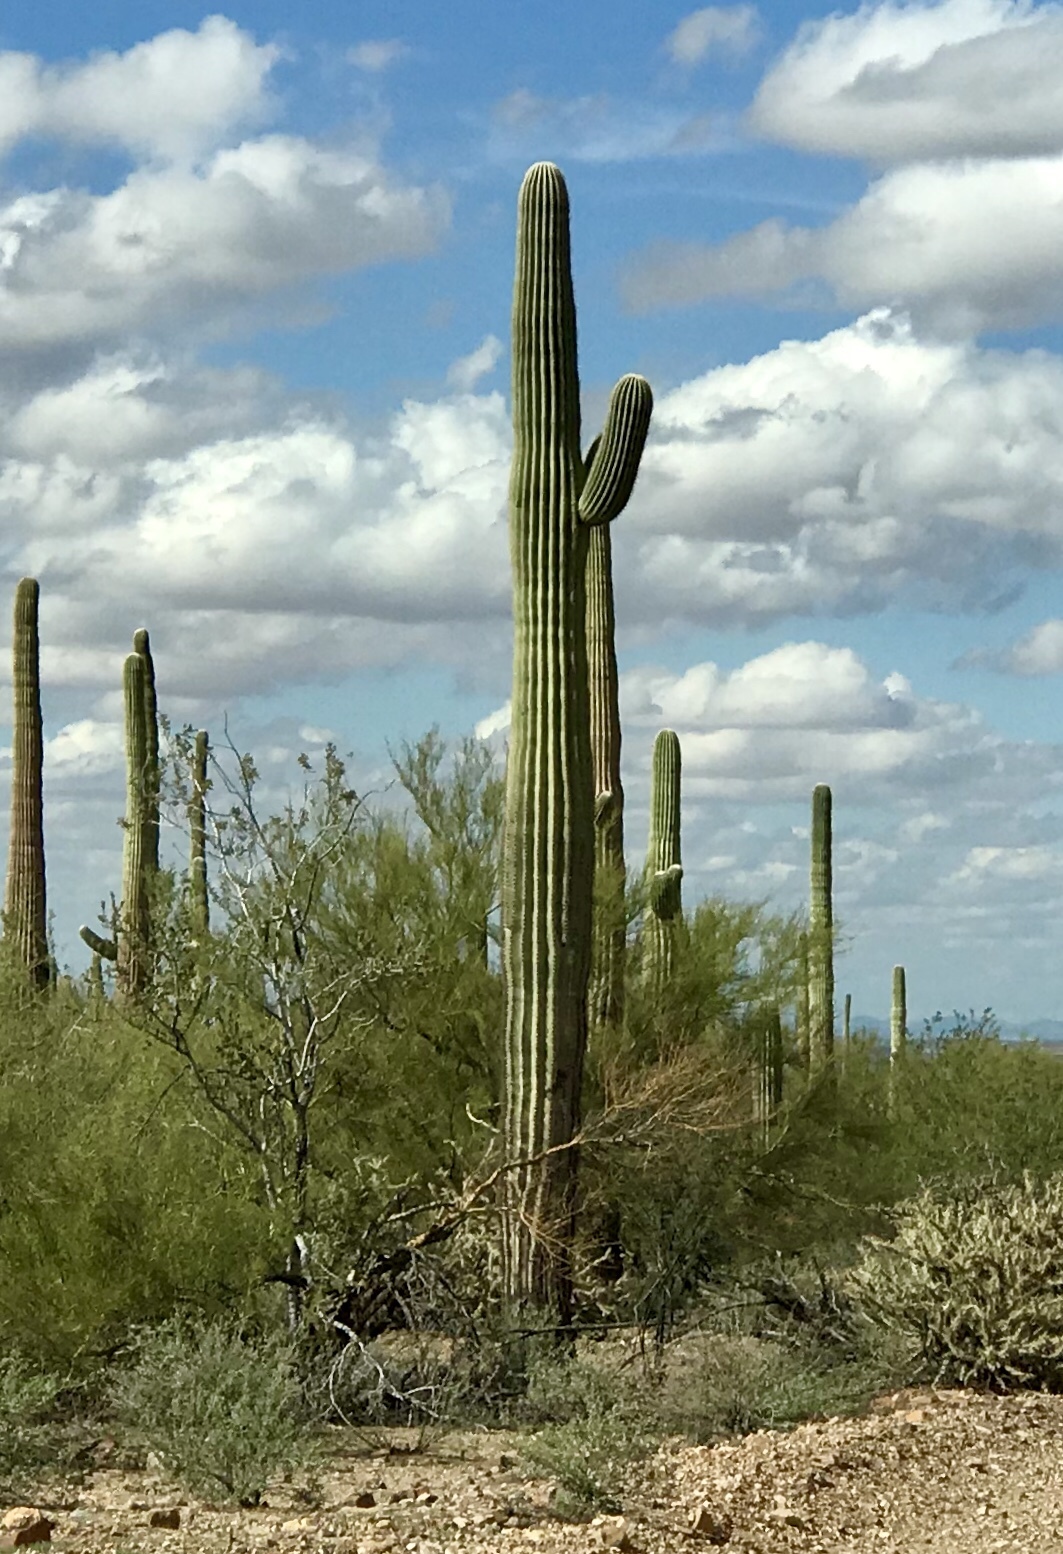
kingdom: Plantae
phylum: Tracheophyta
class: Magnoliopsida
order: Caryophyllales
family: Cactaceae
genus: Carnegiea
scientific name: Carnegiea gigantea
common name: Saguaro
